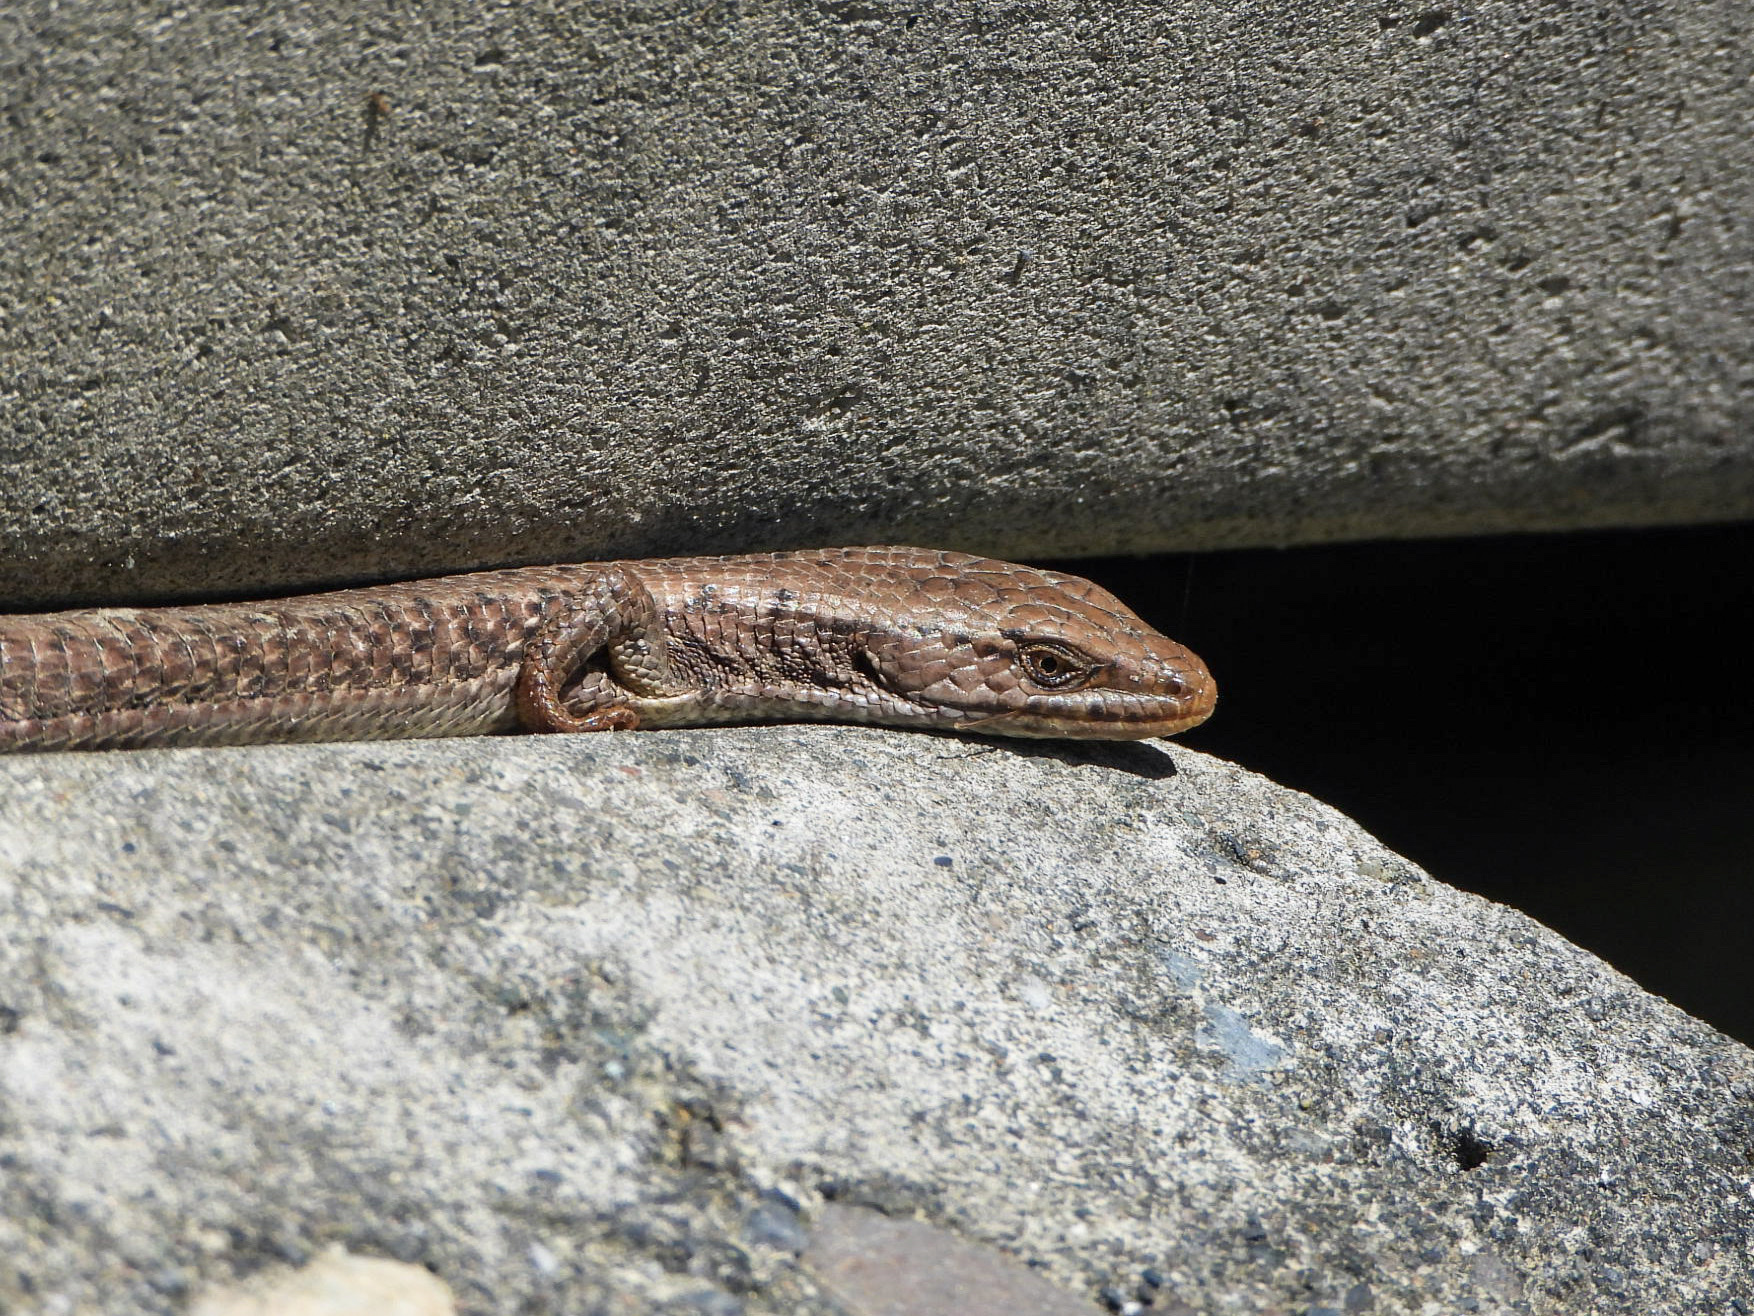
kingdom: Animalia
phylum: Chordata
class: Squamata
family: Anguidae
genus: Elgaria
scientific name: Elgaria coerulea
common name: Northern alligator lizard
